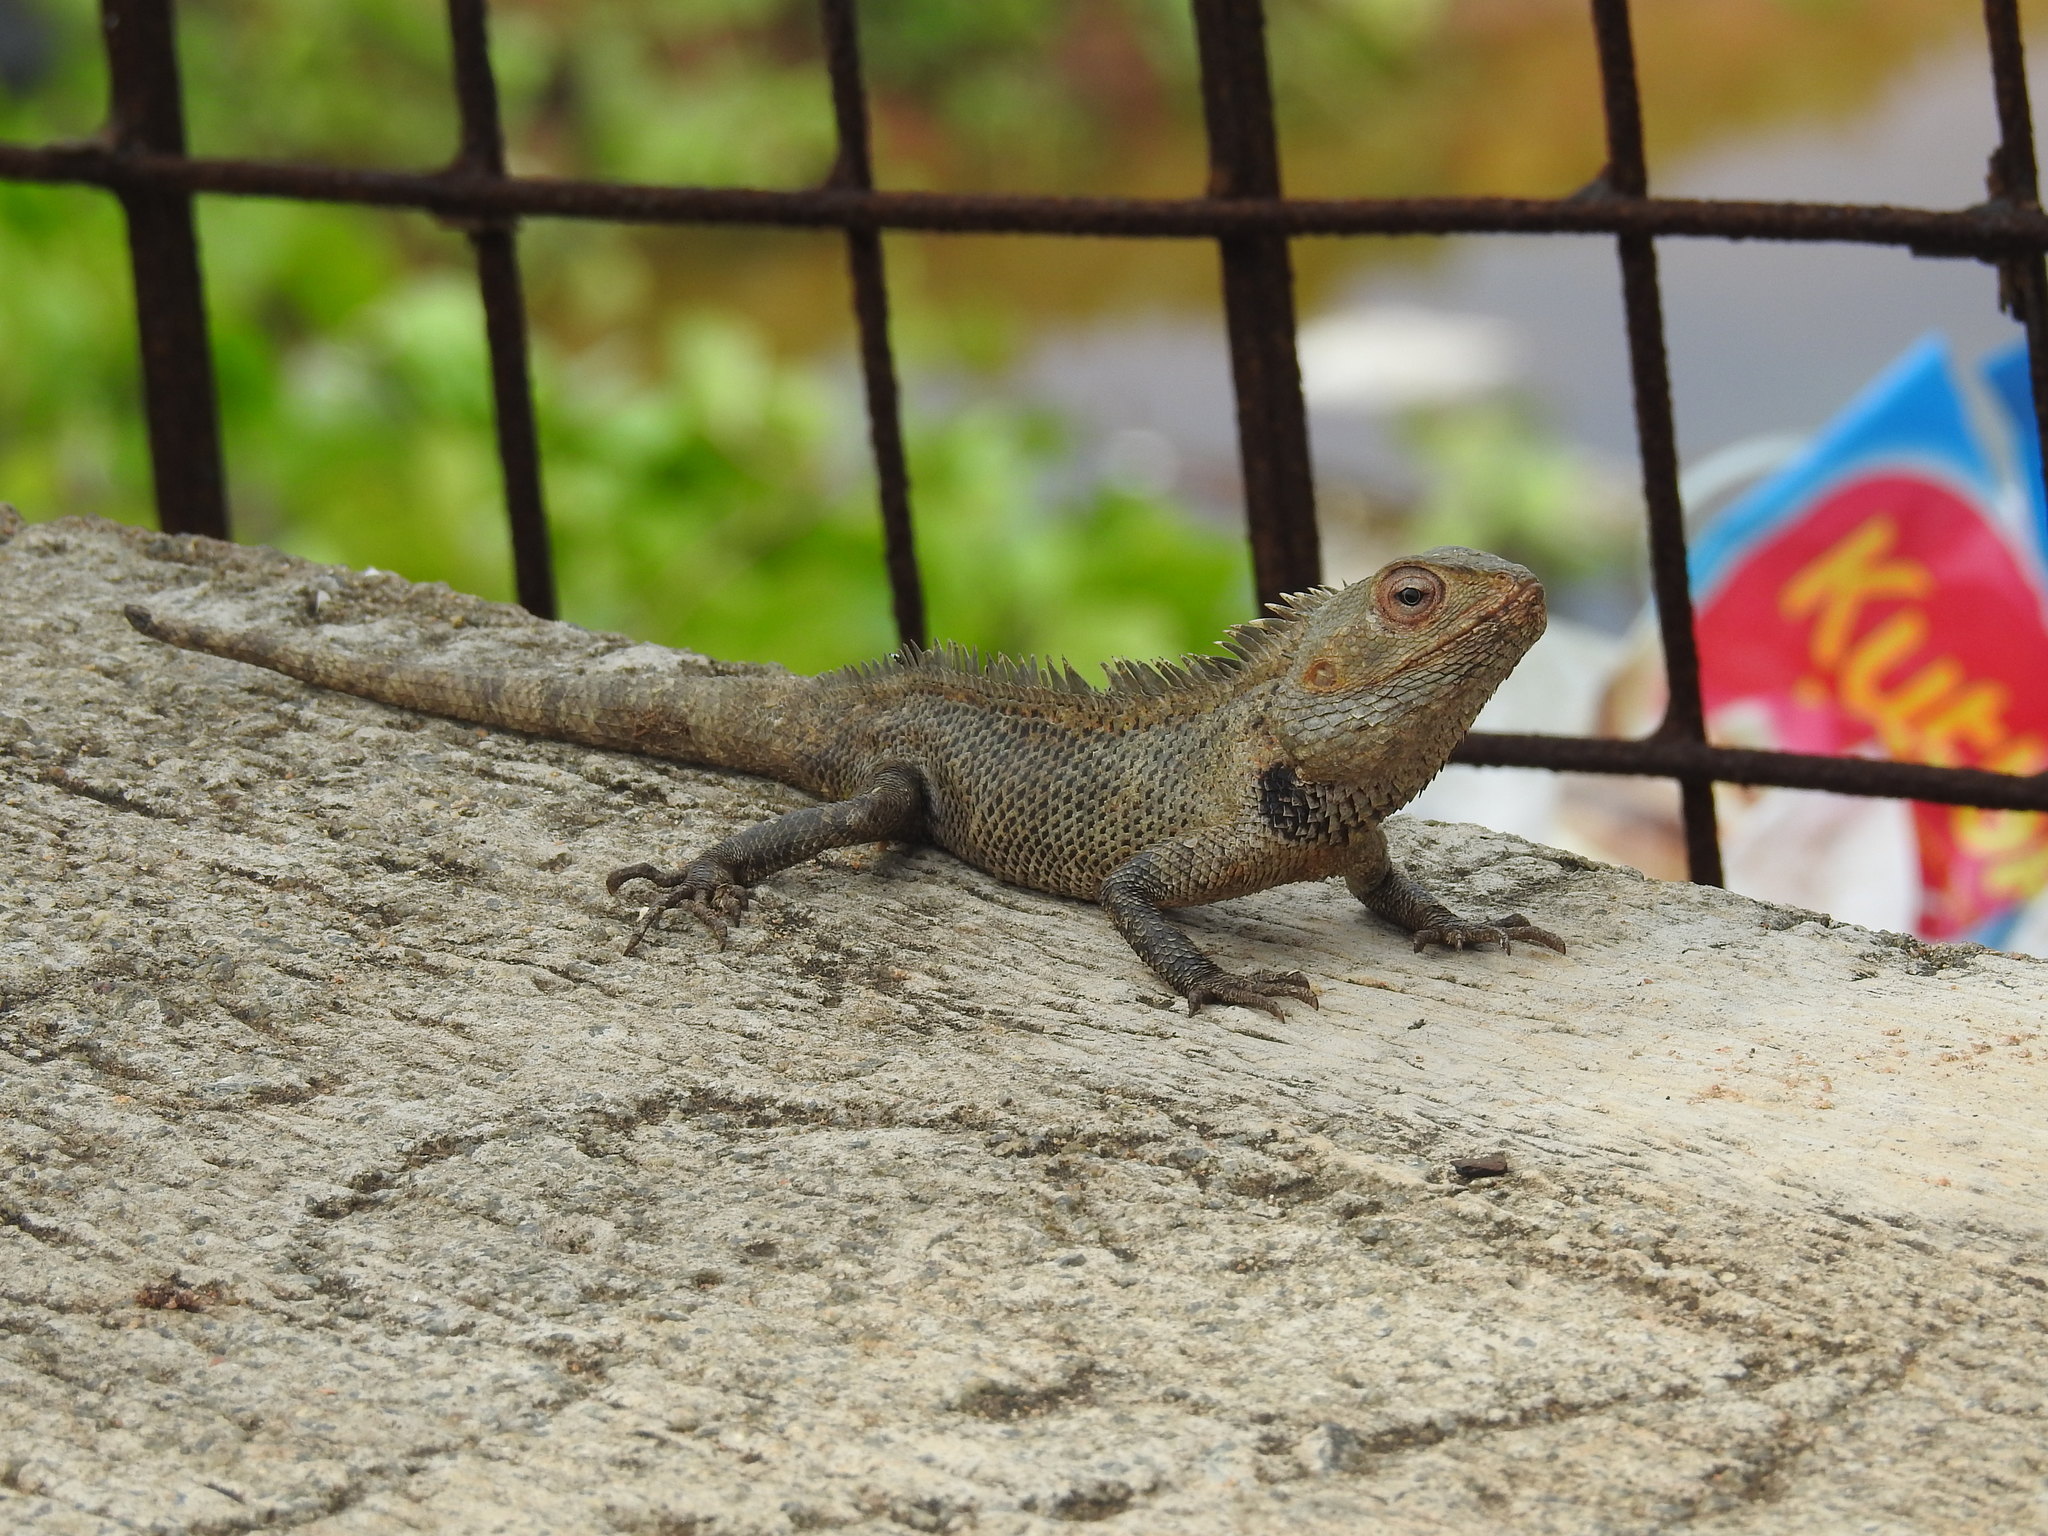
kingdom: Animalia
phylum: Chordata
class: Squamata
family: Agamidae
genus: Calotes
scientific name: Calotes versicolor
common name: Oriental garden lizard
